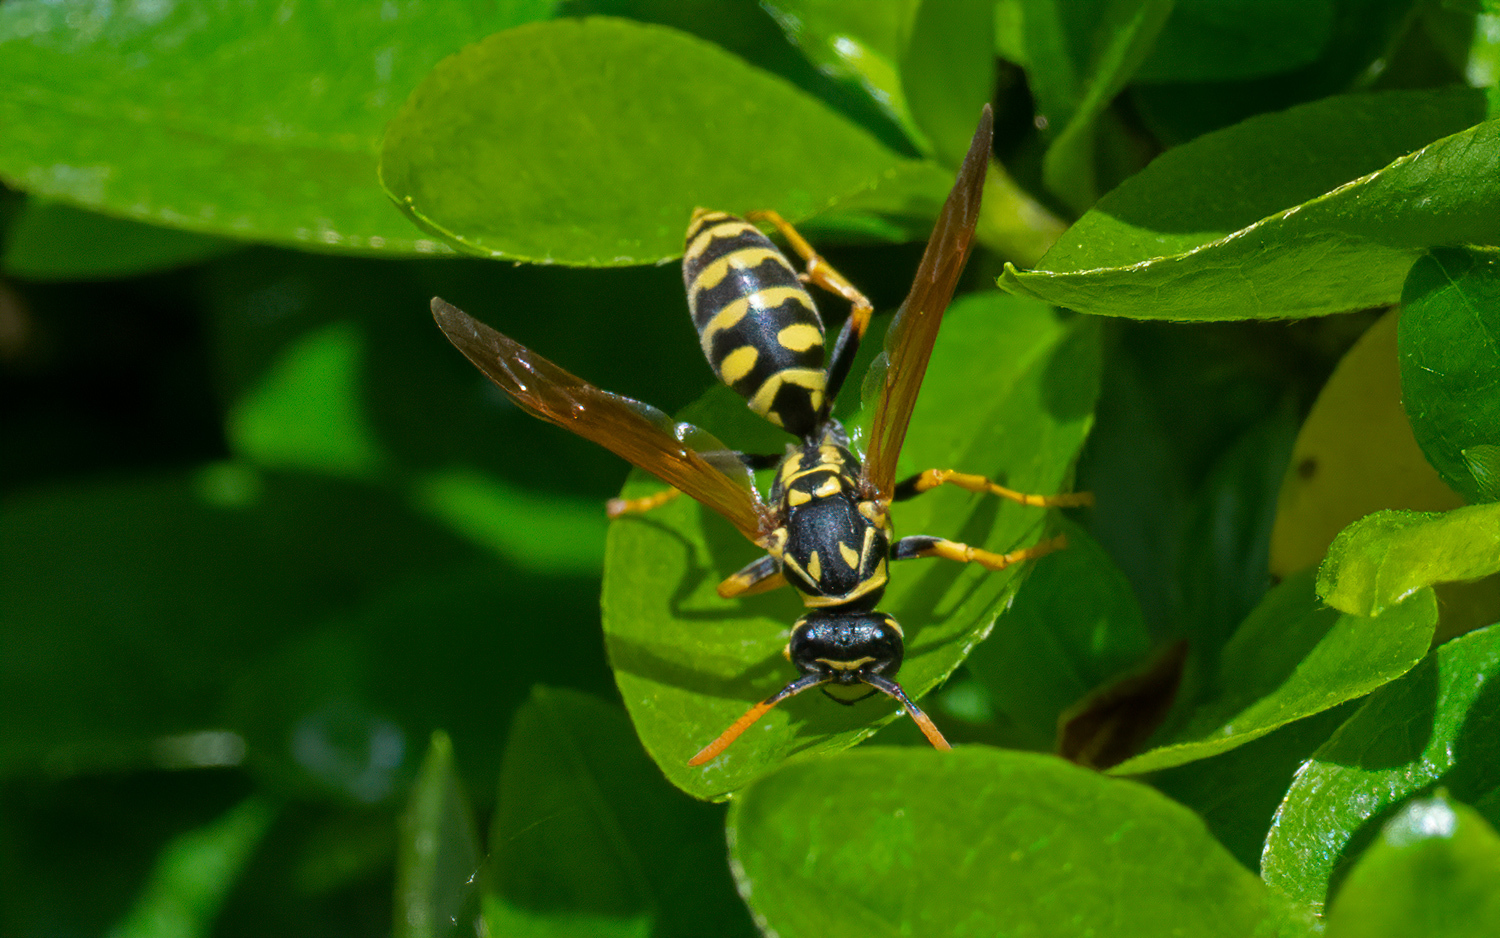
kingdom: Animalia
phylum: Arthropoda
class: Insecta
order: Hymenoptera
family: Eumenidae
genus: Polistes
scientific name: Polistes dominula
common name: Paper wasp
